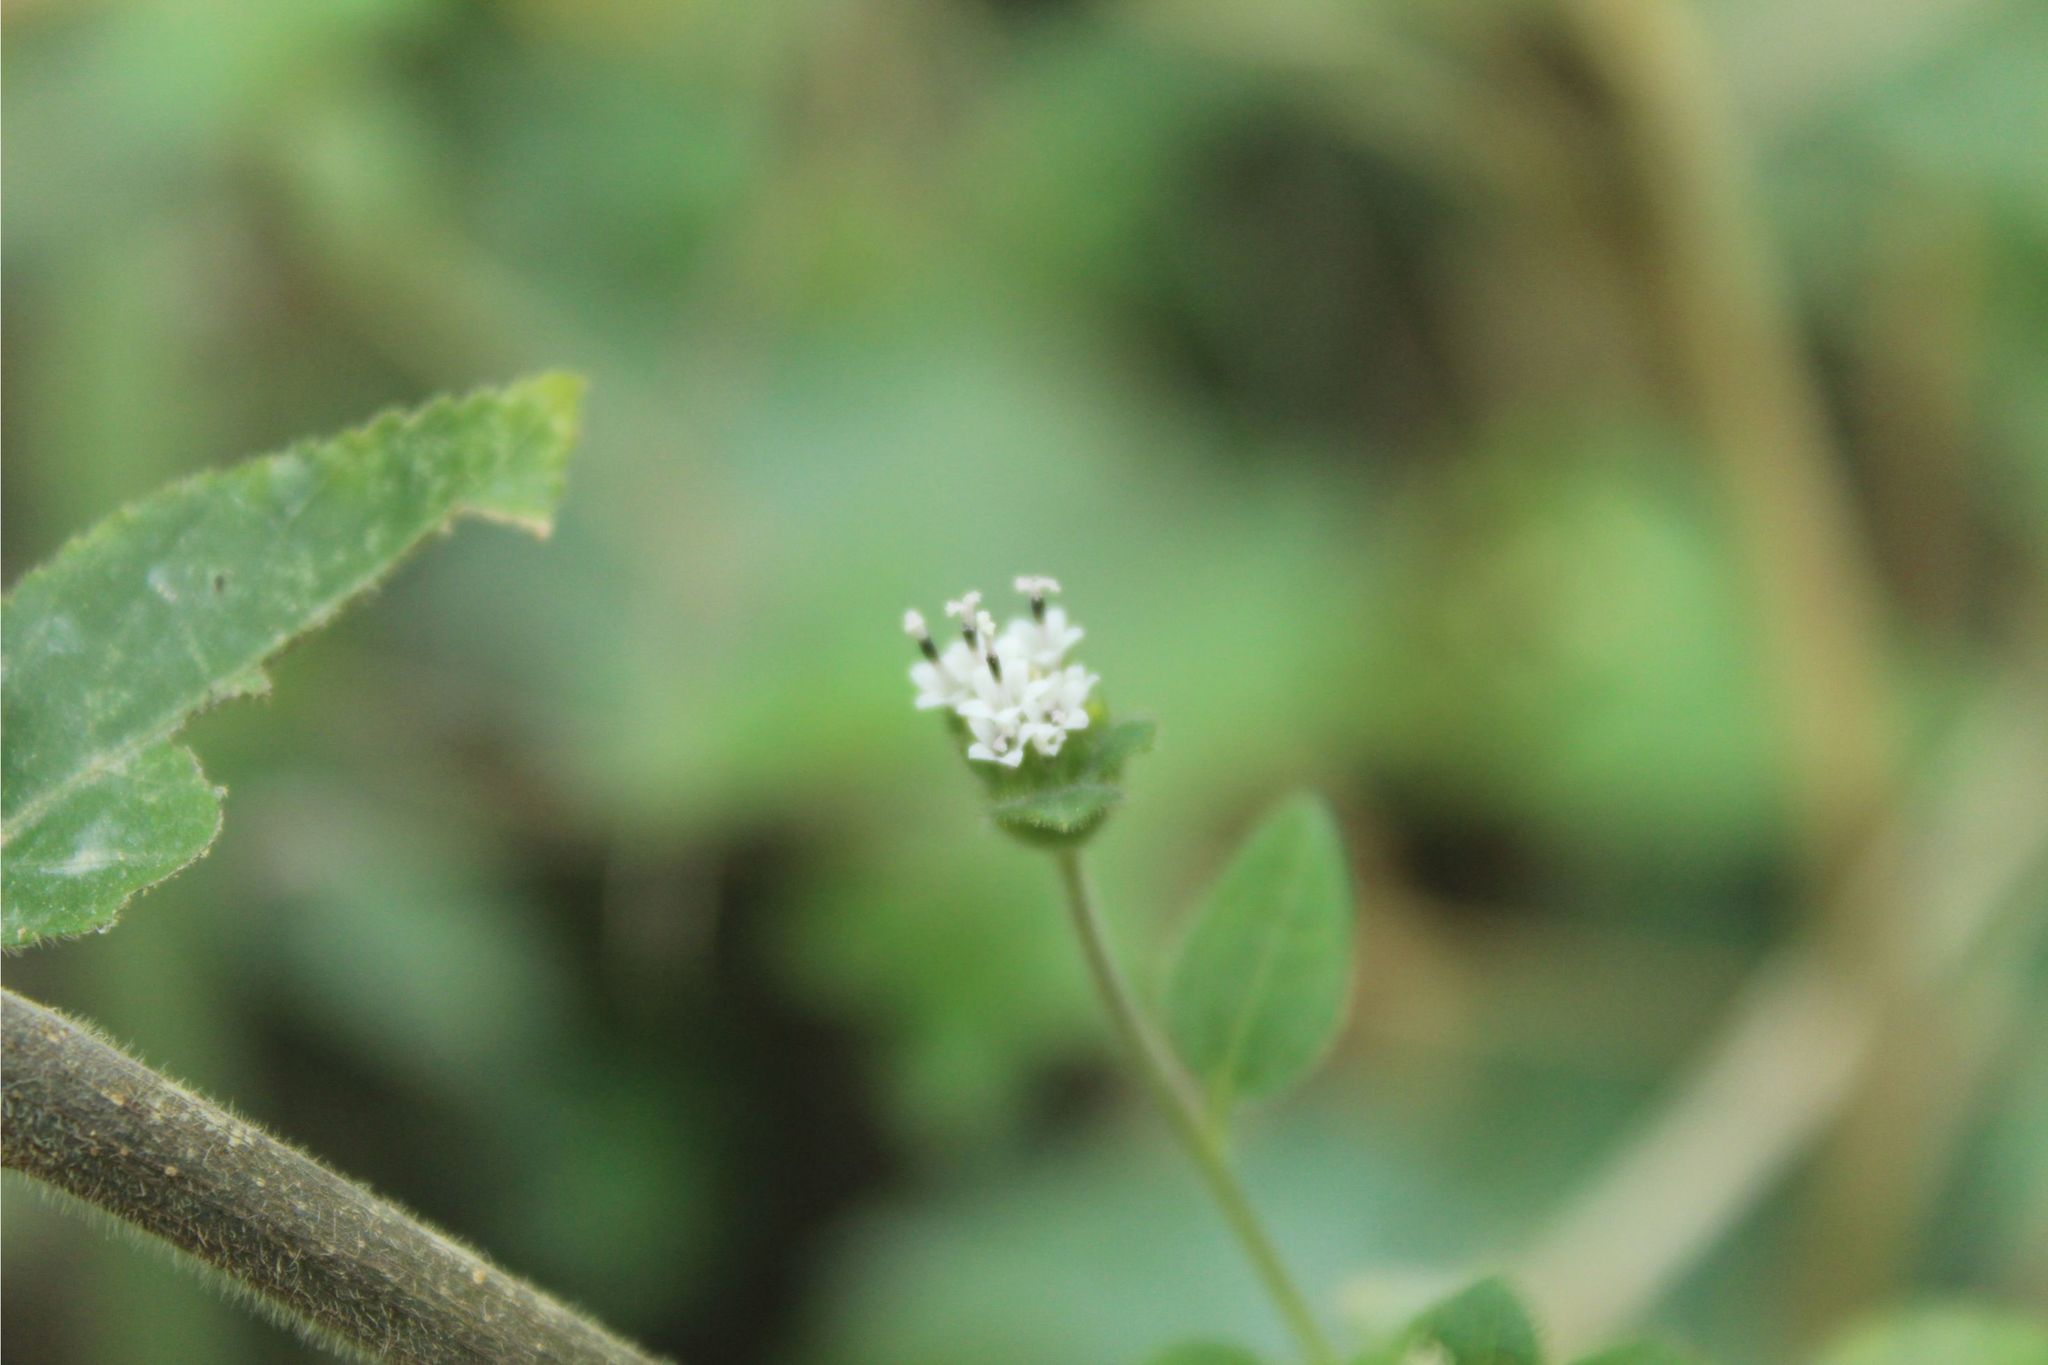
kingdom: Plantae
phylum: Tracheophyta
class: Magnoliopsida
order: Asterales
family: Asteraceae
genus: Lagascea
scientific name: Lagascea mollis
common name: Silkleaf
